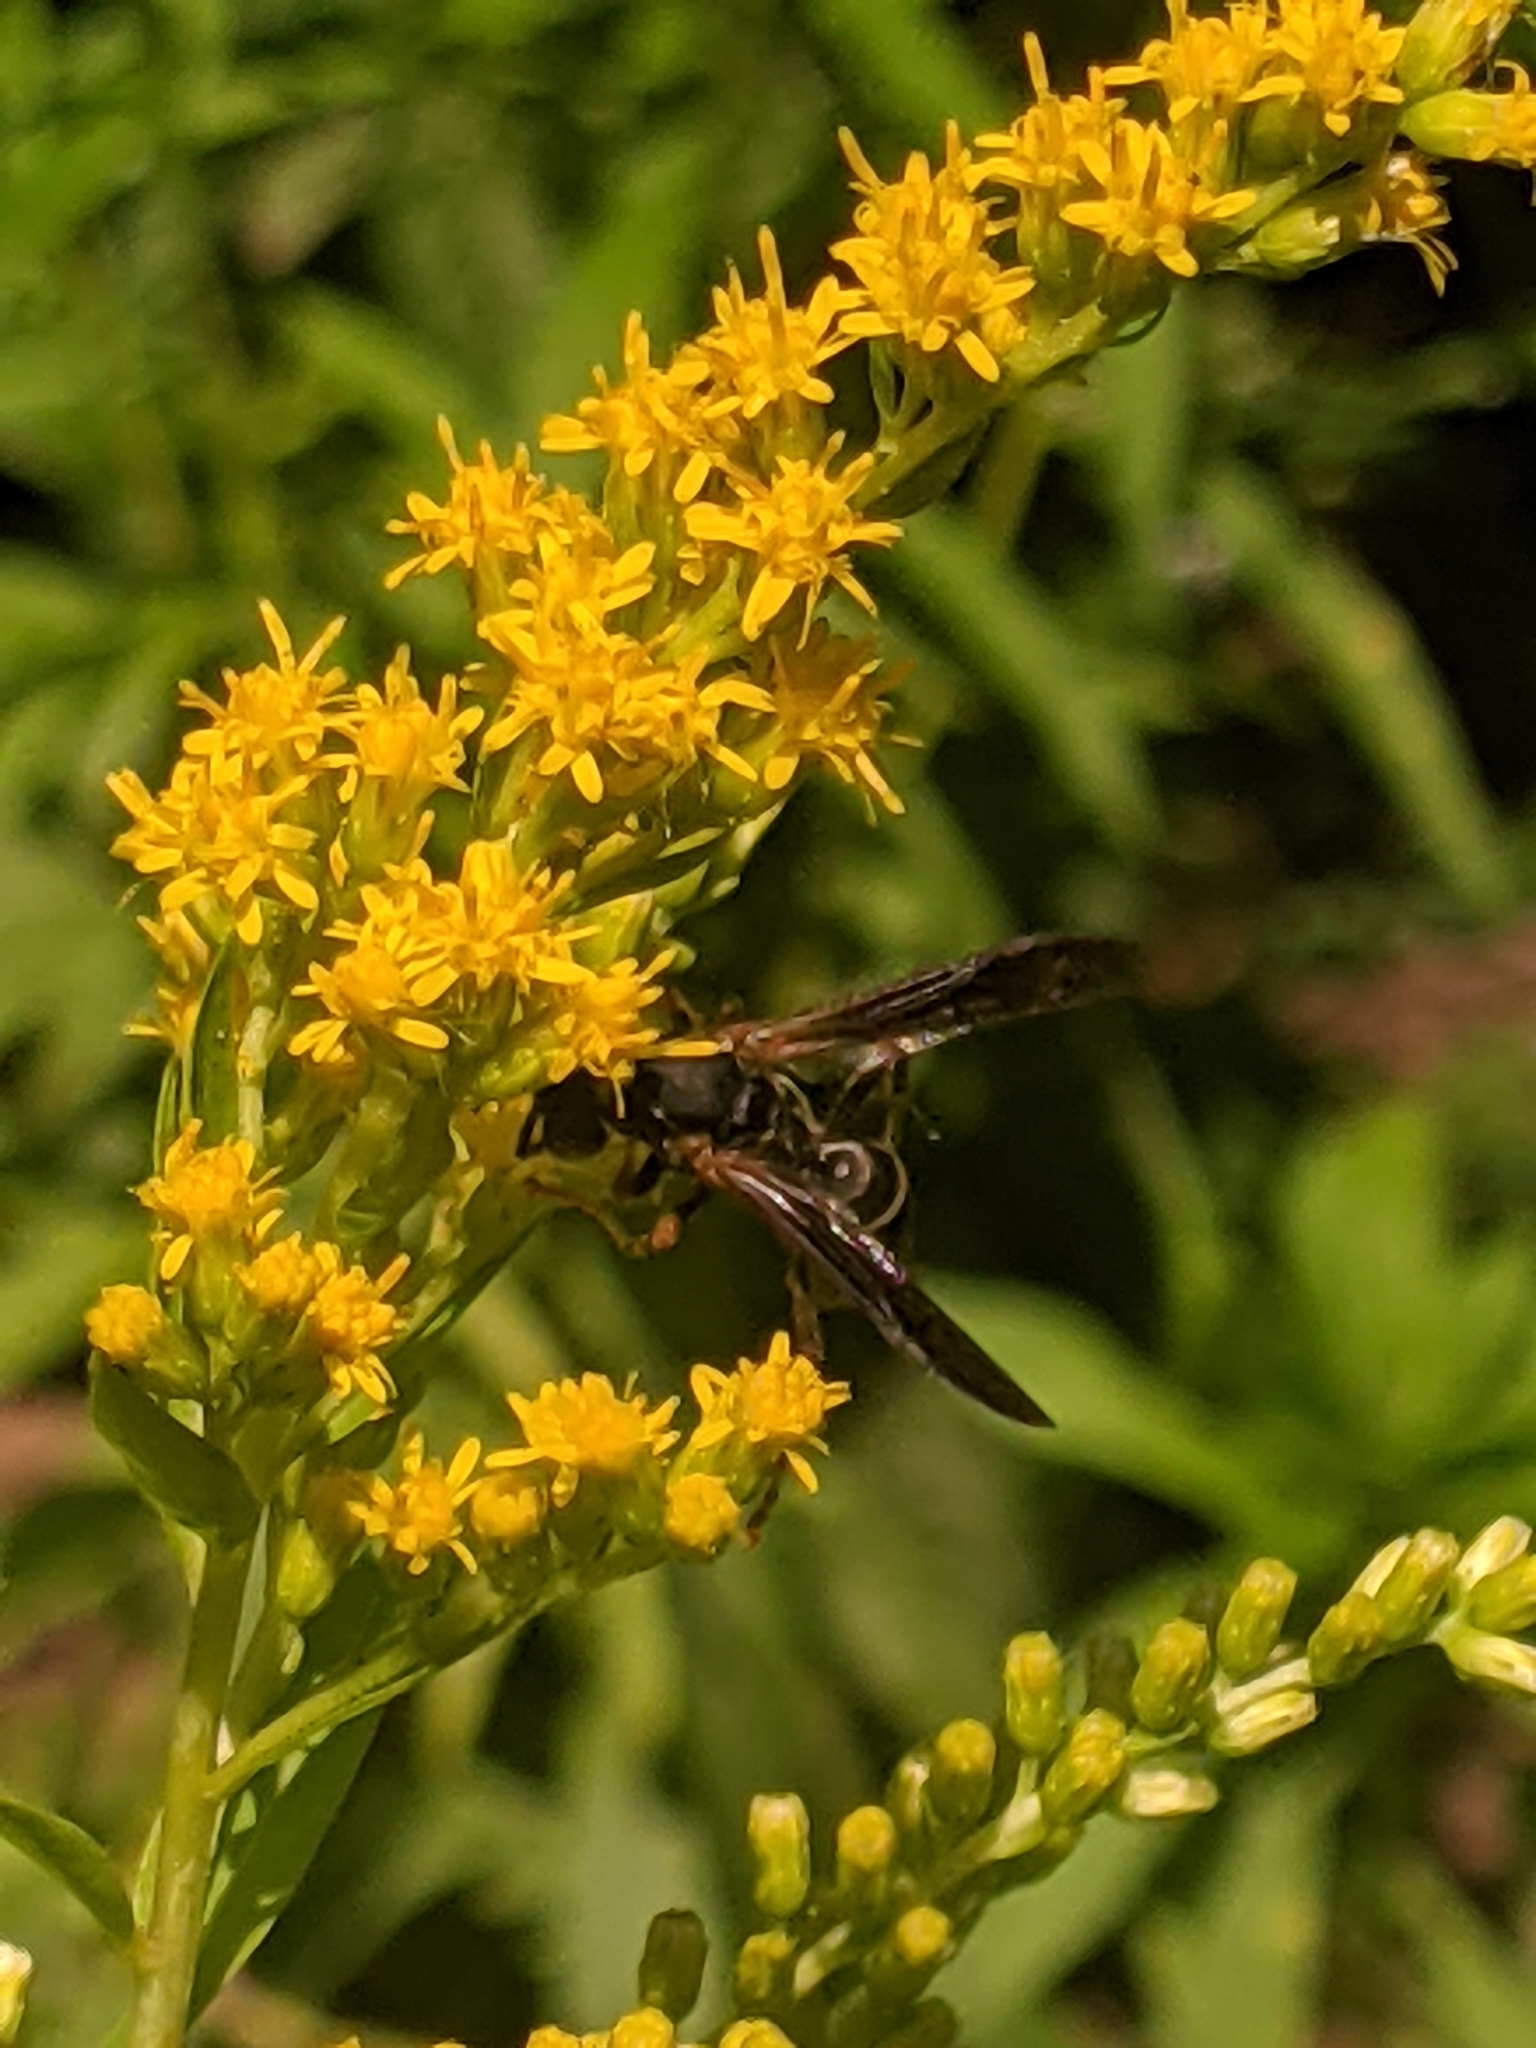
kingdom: Animalia
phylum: Arthropoda
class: Insecta
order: Hymenoptera
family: Eumenidae
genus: Polistes
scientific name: Polistes fuscatus
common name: Dark paper wasp
